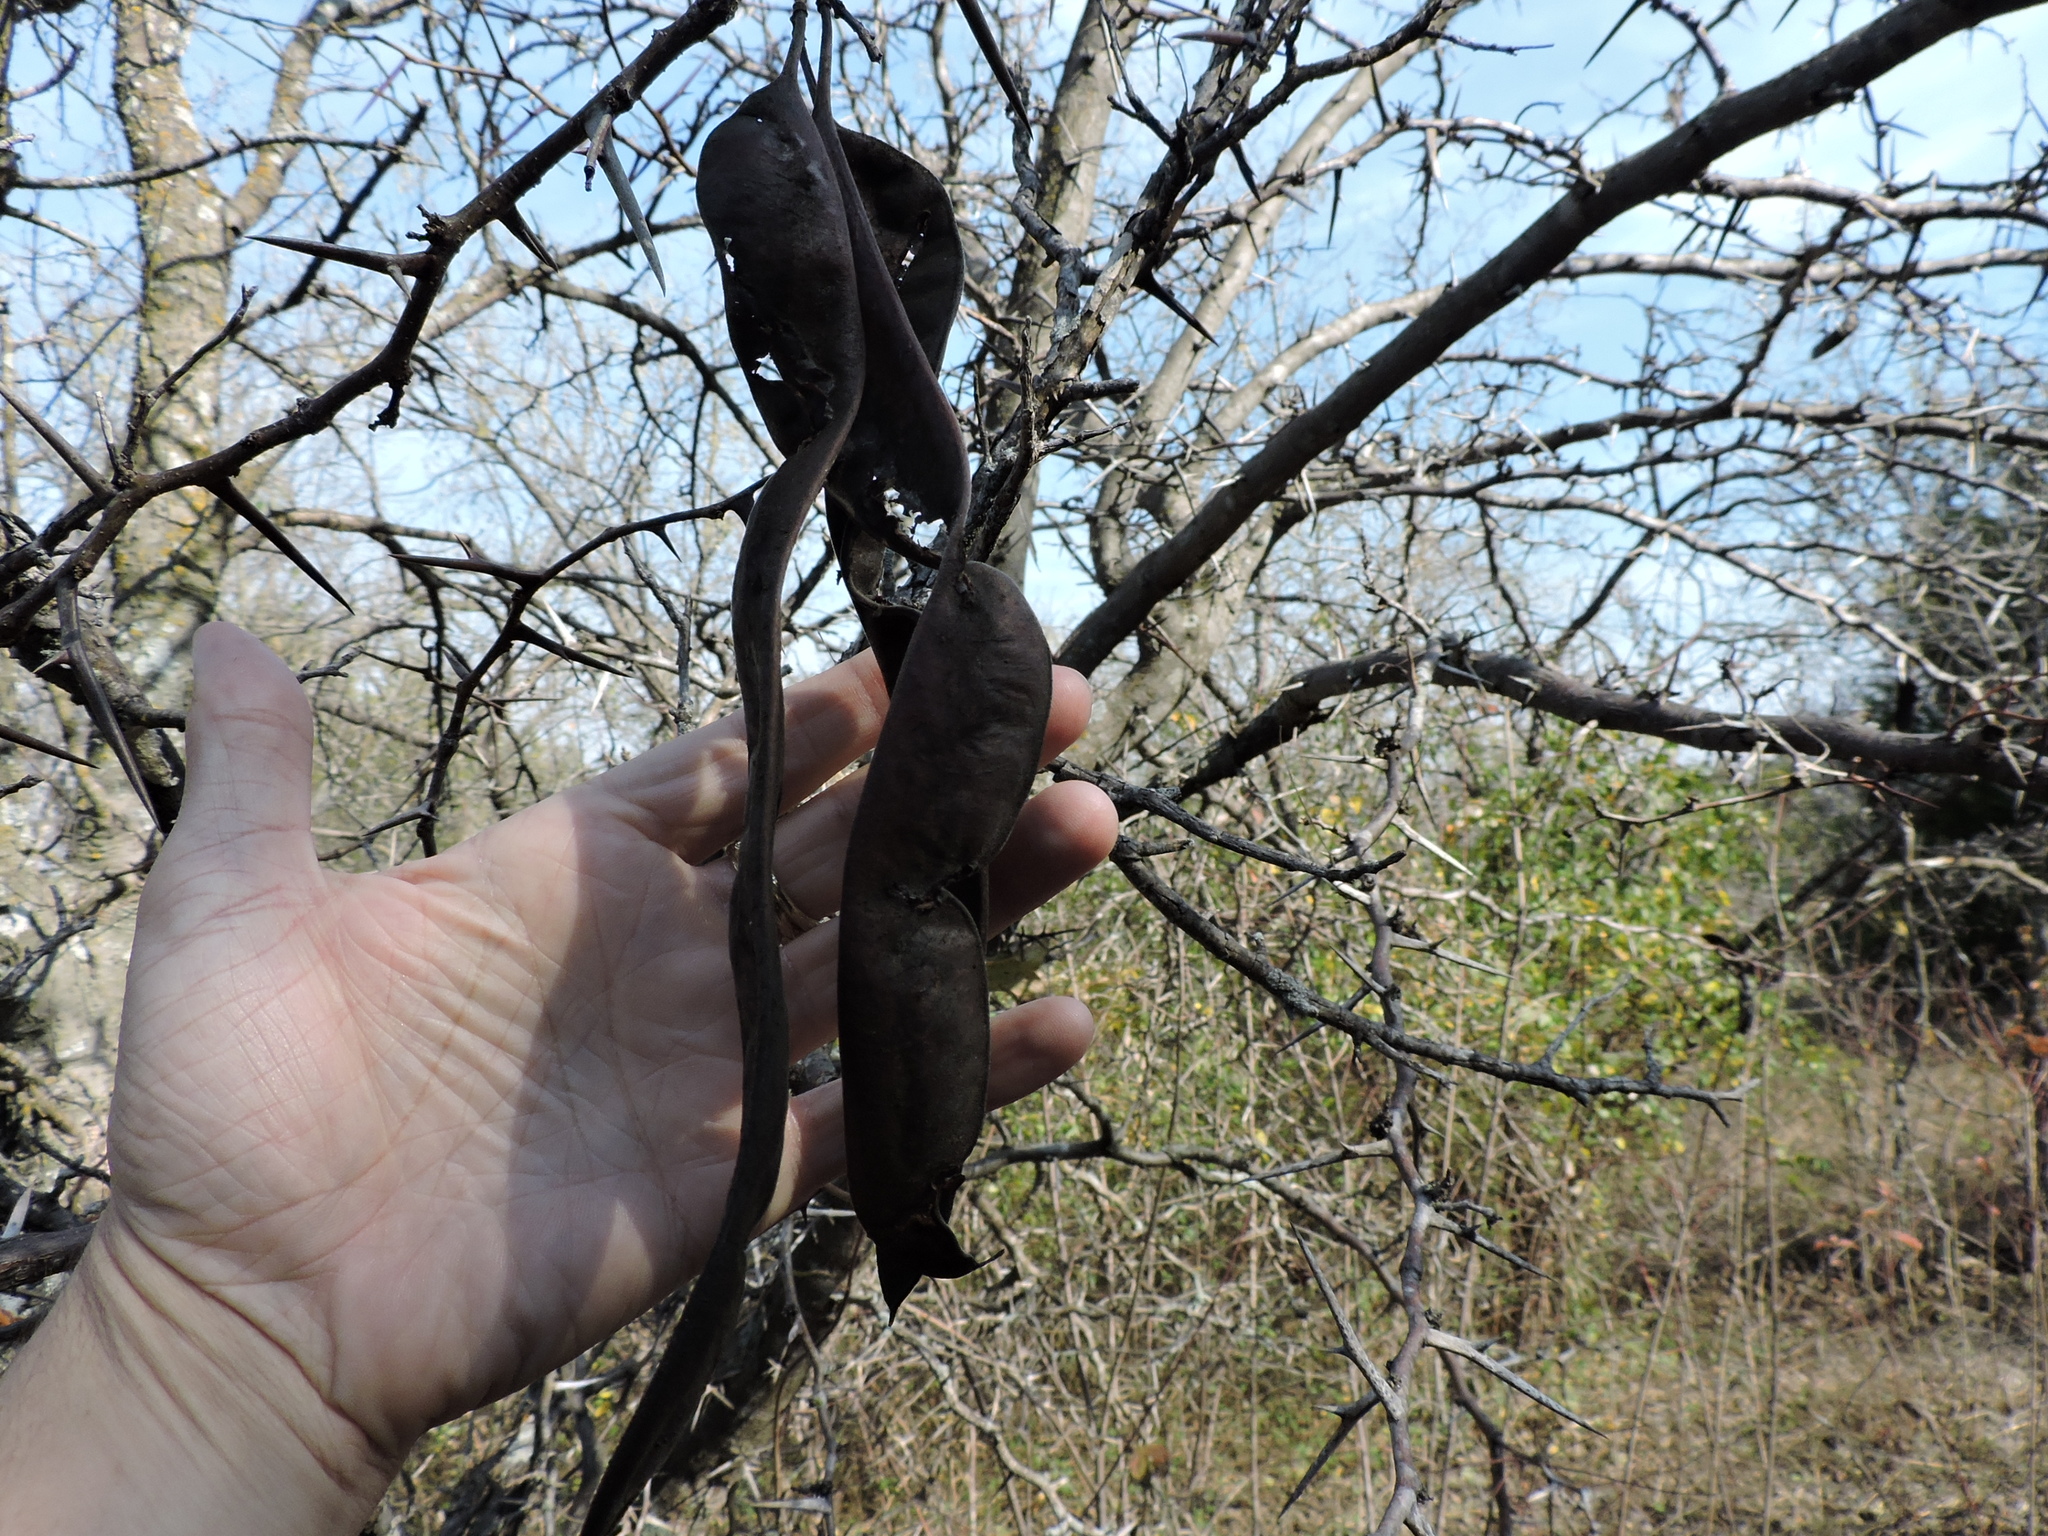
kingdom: Plantae
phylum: Tracheophyta
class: Magnoliopsida
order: Fabales
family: Fabaceae
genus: Gleditsia
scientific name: Gleditsia triacanthos
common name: Common honeylocust
